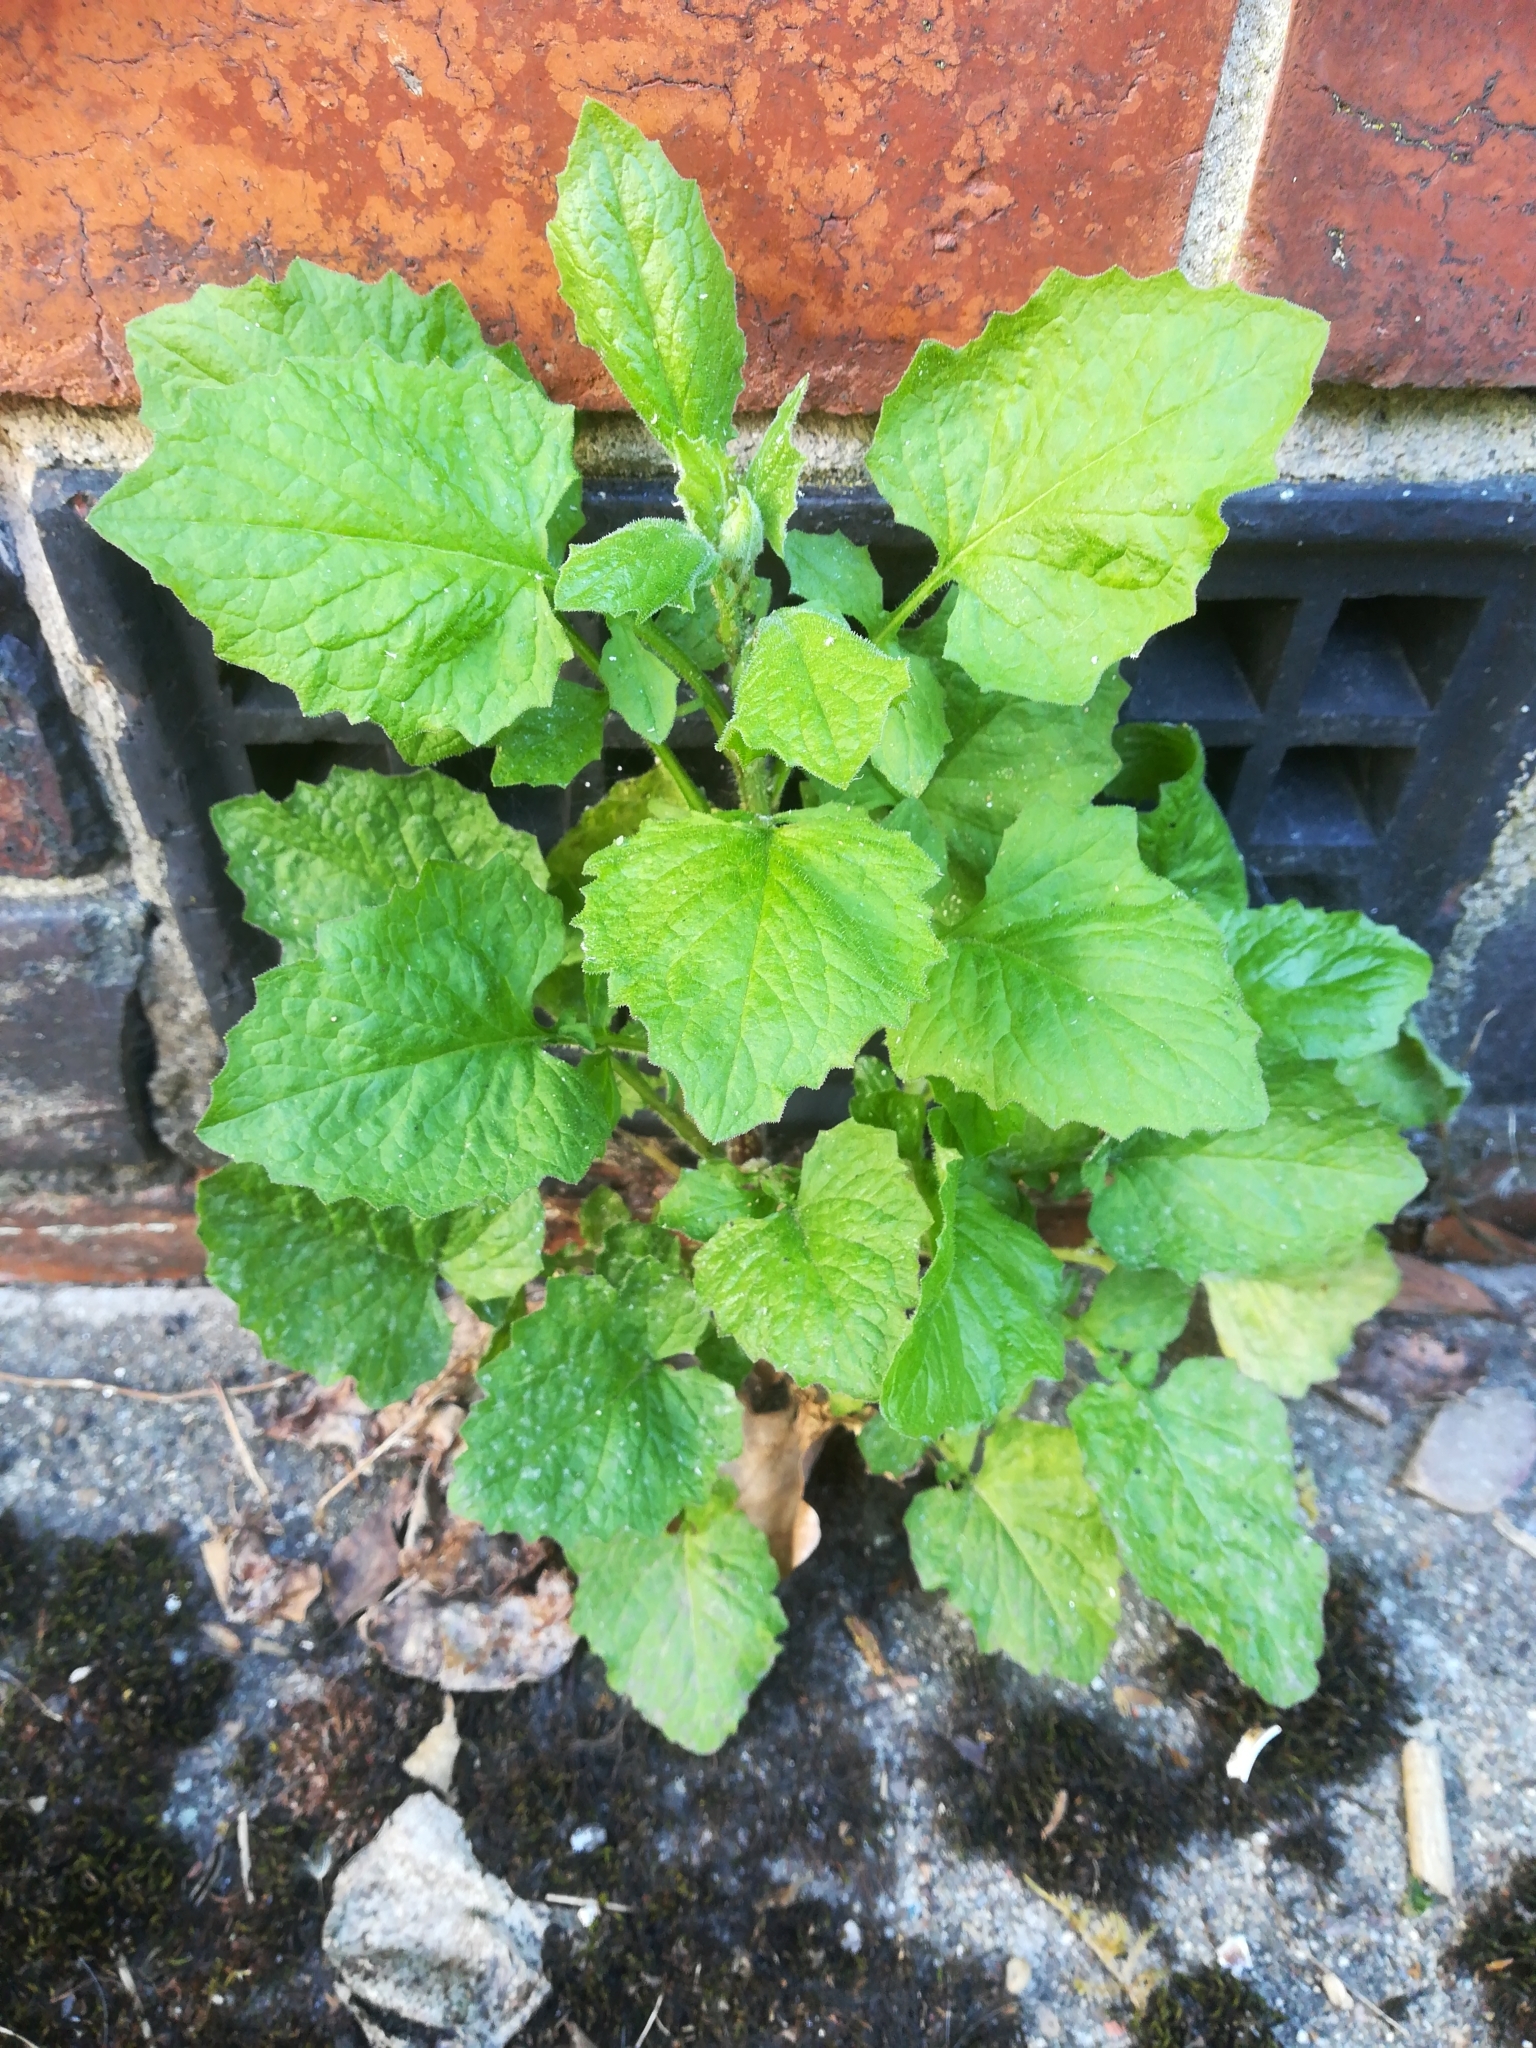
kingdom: Plantae
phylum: Tracheophyta
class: Magnoliopsida
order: Asterales
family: Asteraceae
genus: Lapsana
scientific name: Lapsana communis
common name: Nipplewort
